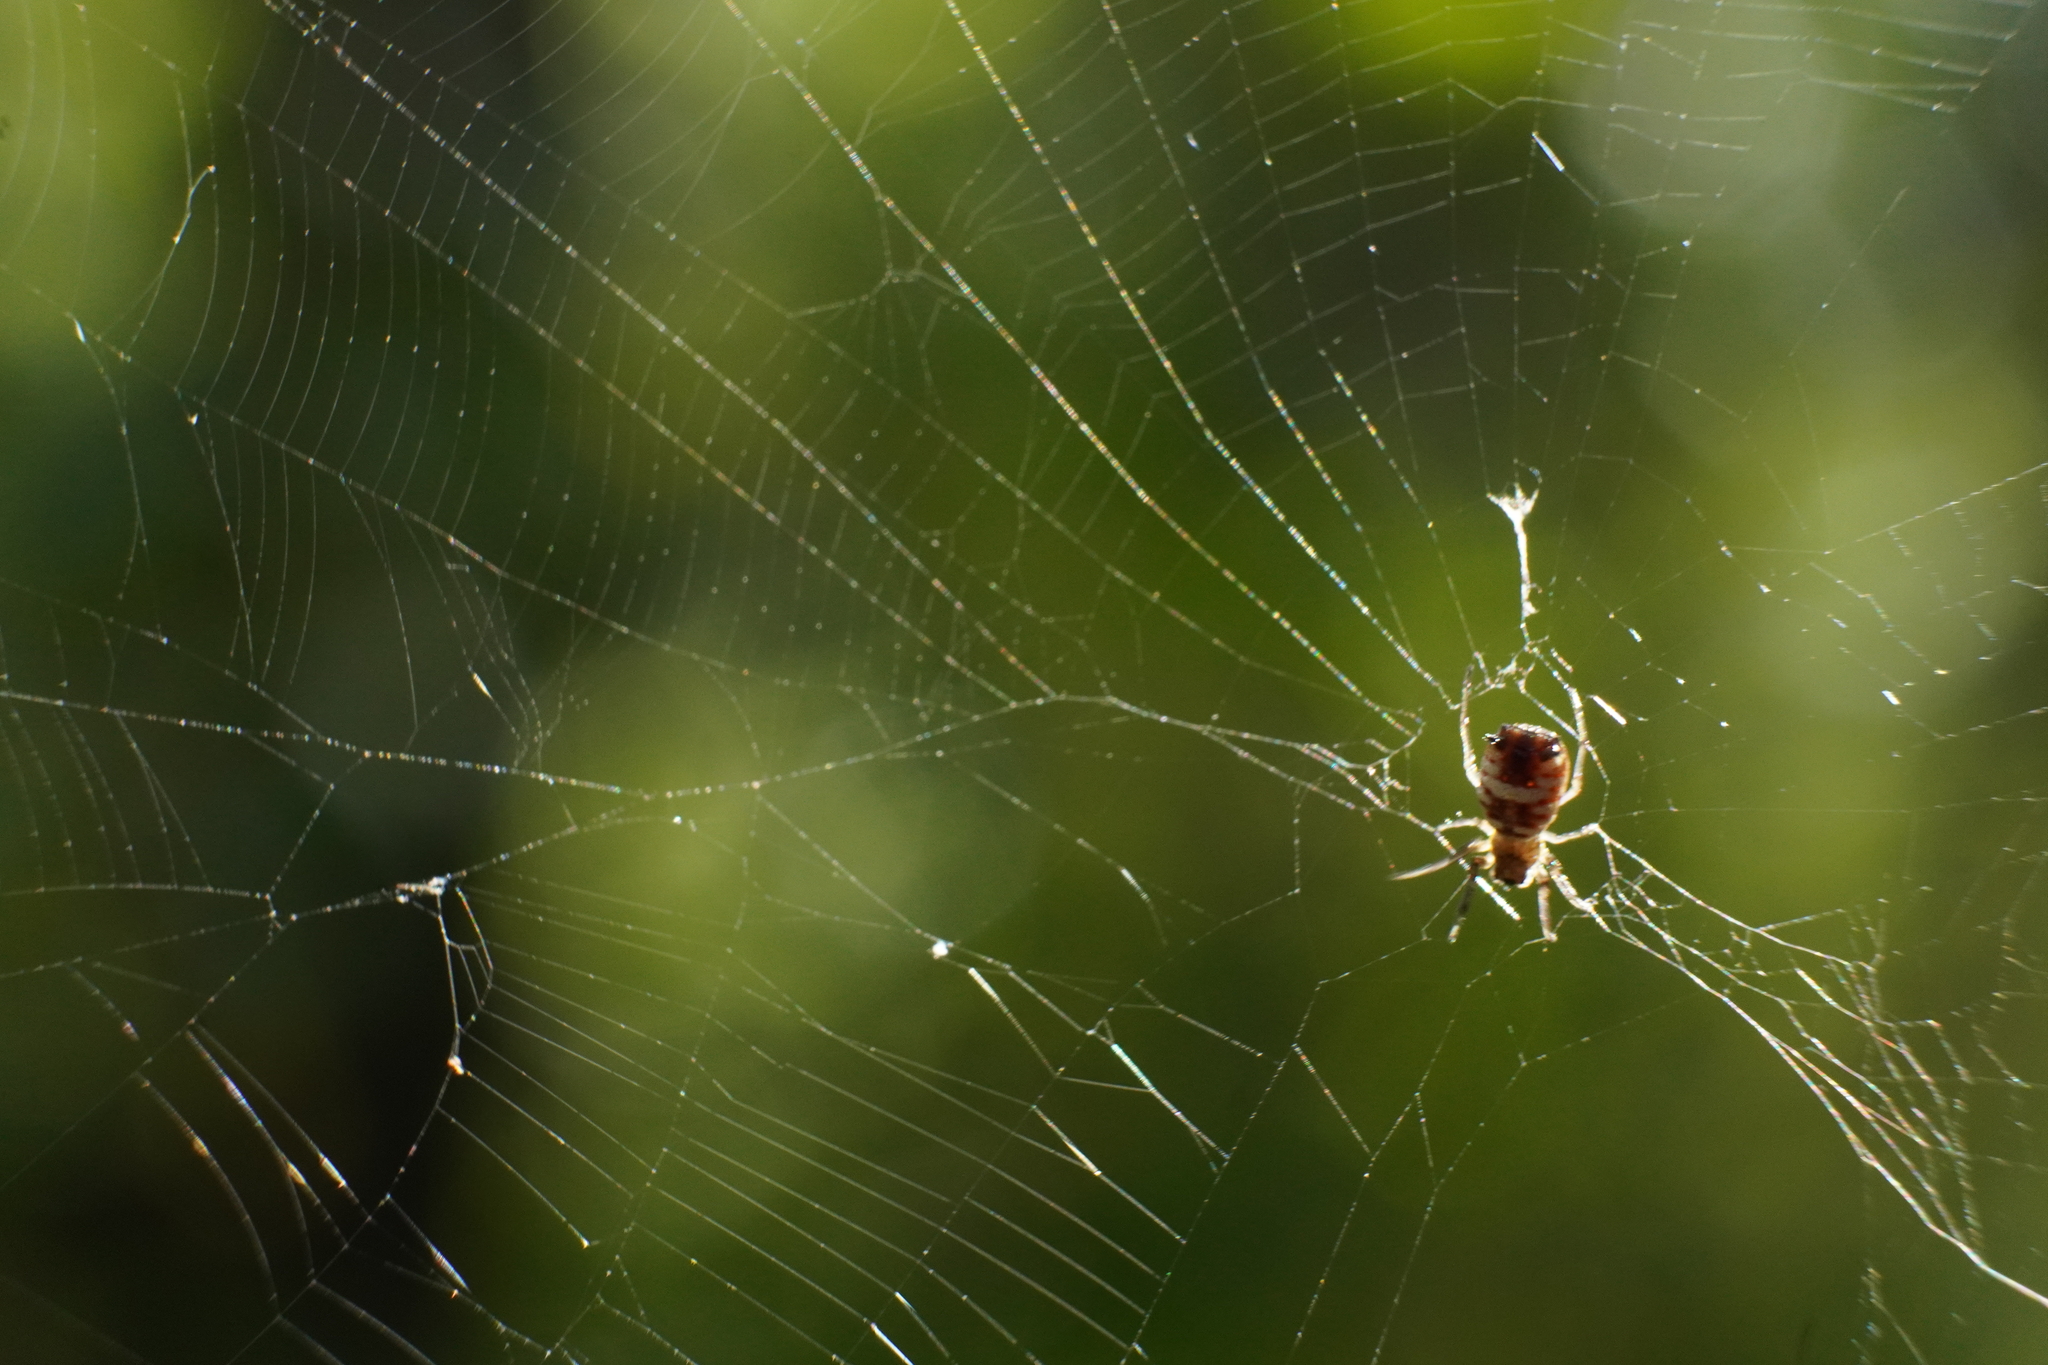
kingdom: Animalia
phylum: Arthropoda
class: Arachnida
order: Araneae
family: Araneidae
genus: Micrathena
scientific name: Micrathena mitrata
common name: Orb weavers
